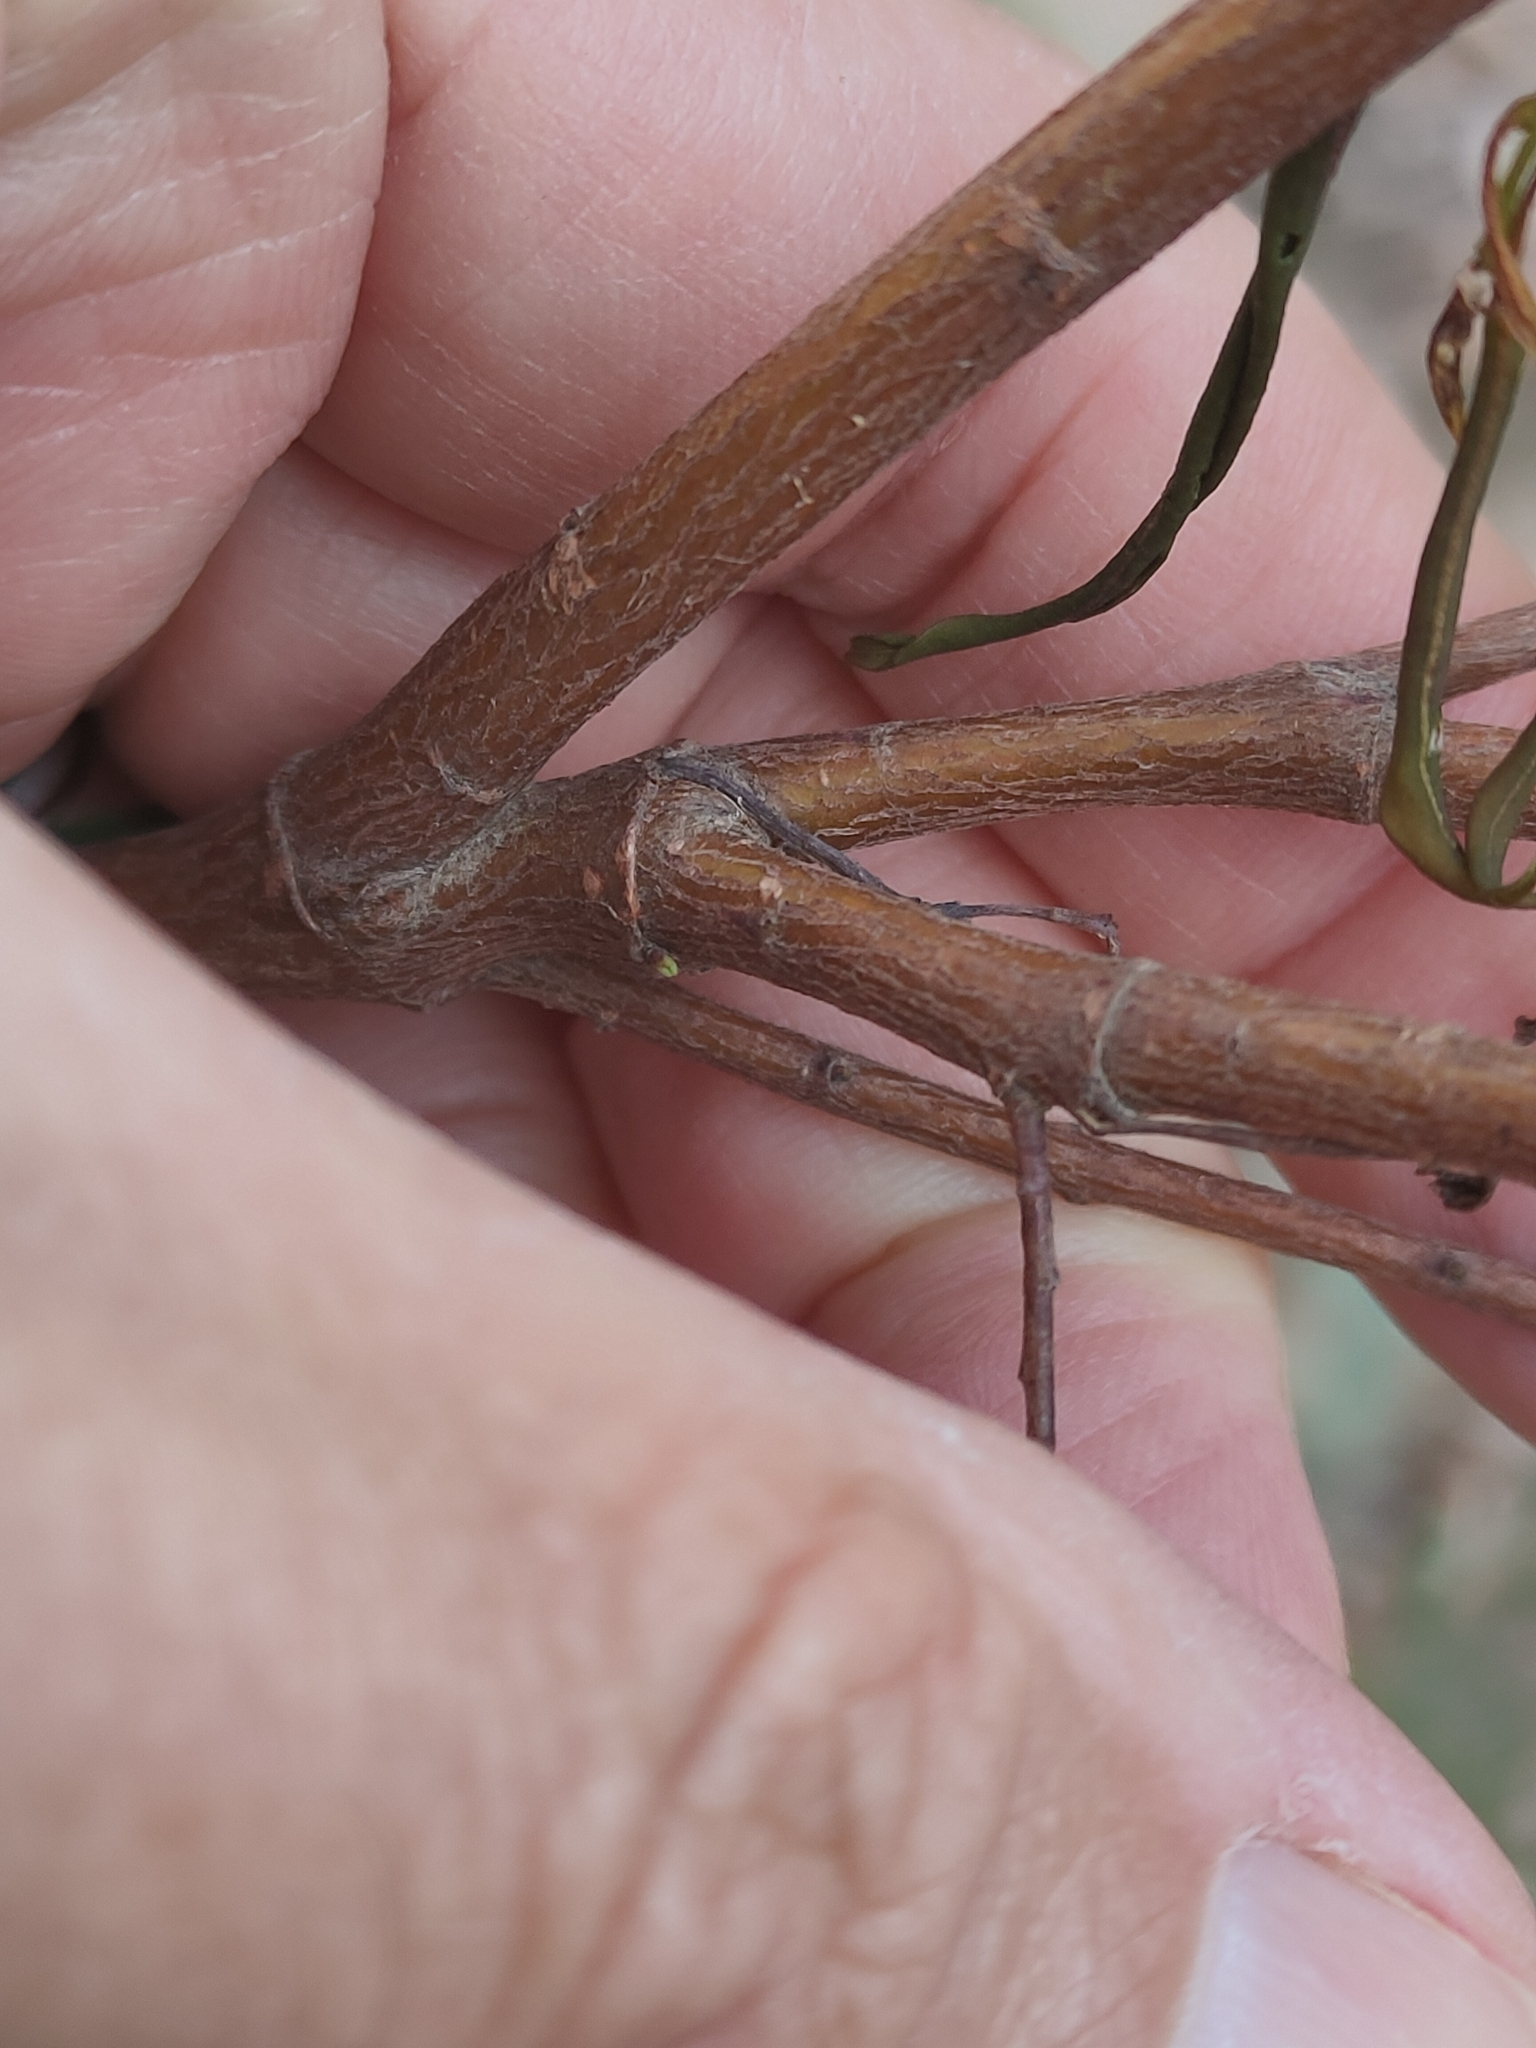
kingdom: Plantae
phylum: Tracheophyta
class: Magnoliopsida
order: Malvales
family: Thymelaeaceae
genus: Pimelea
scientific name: Pimelea neoanglica
